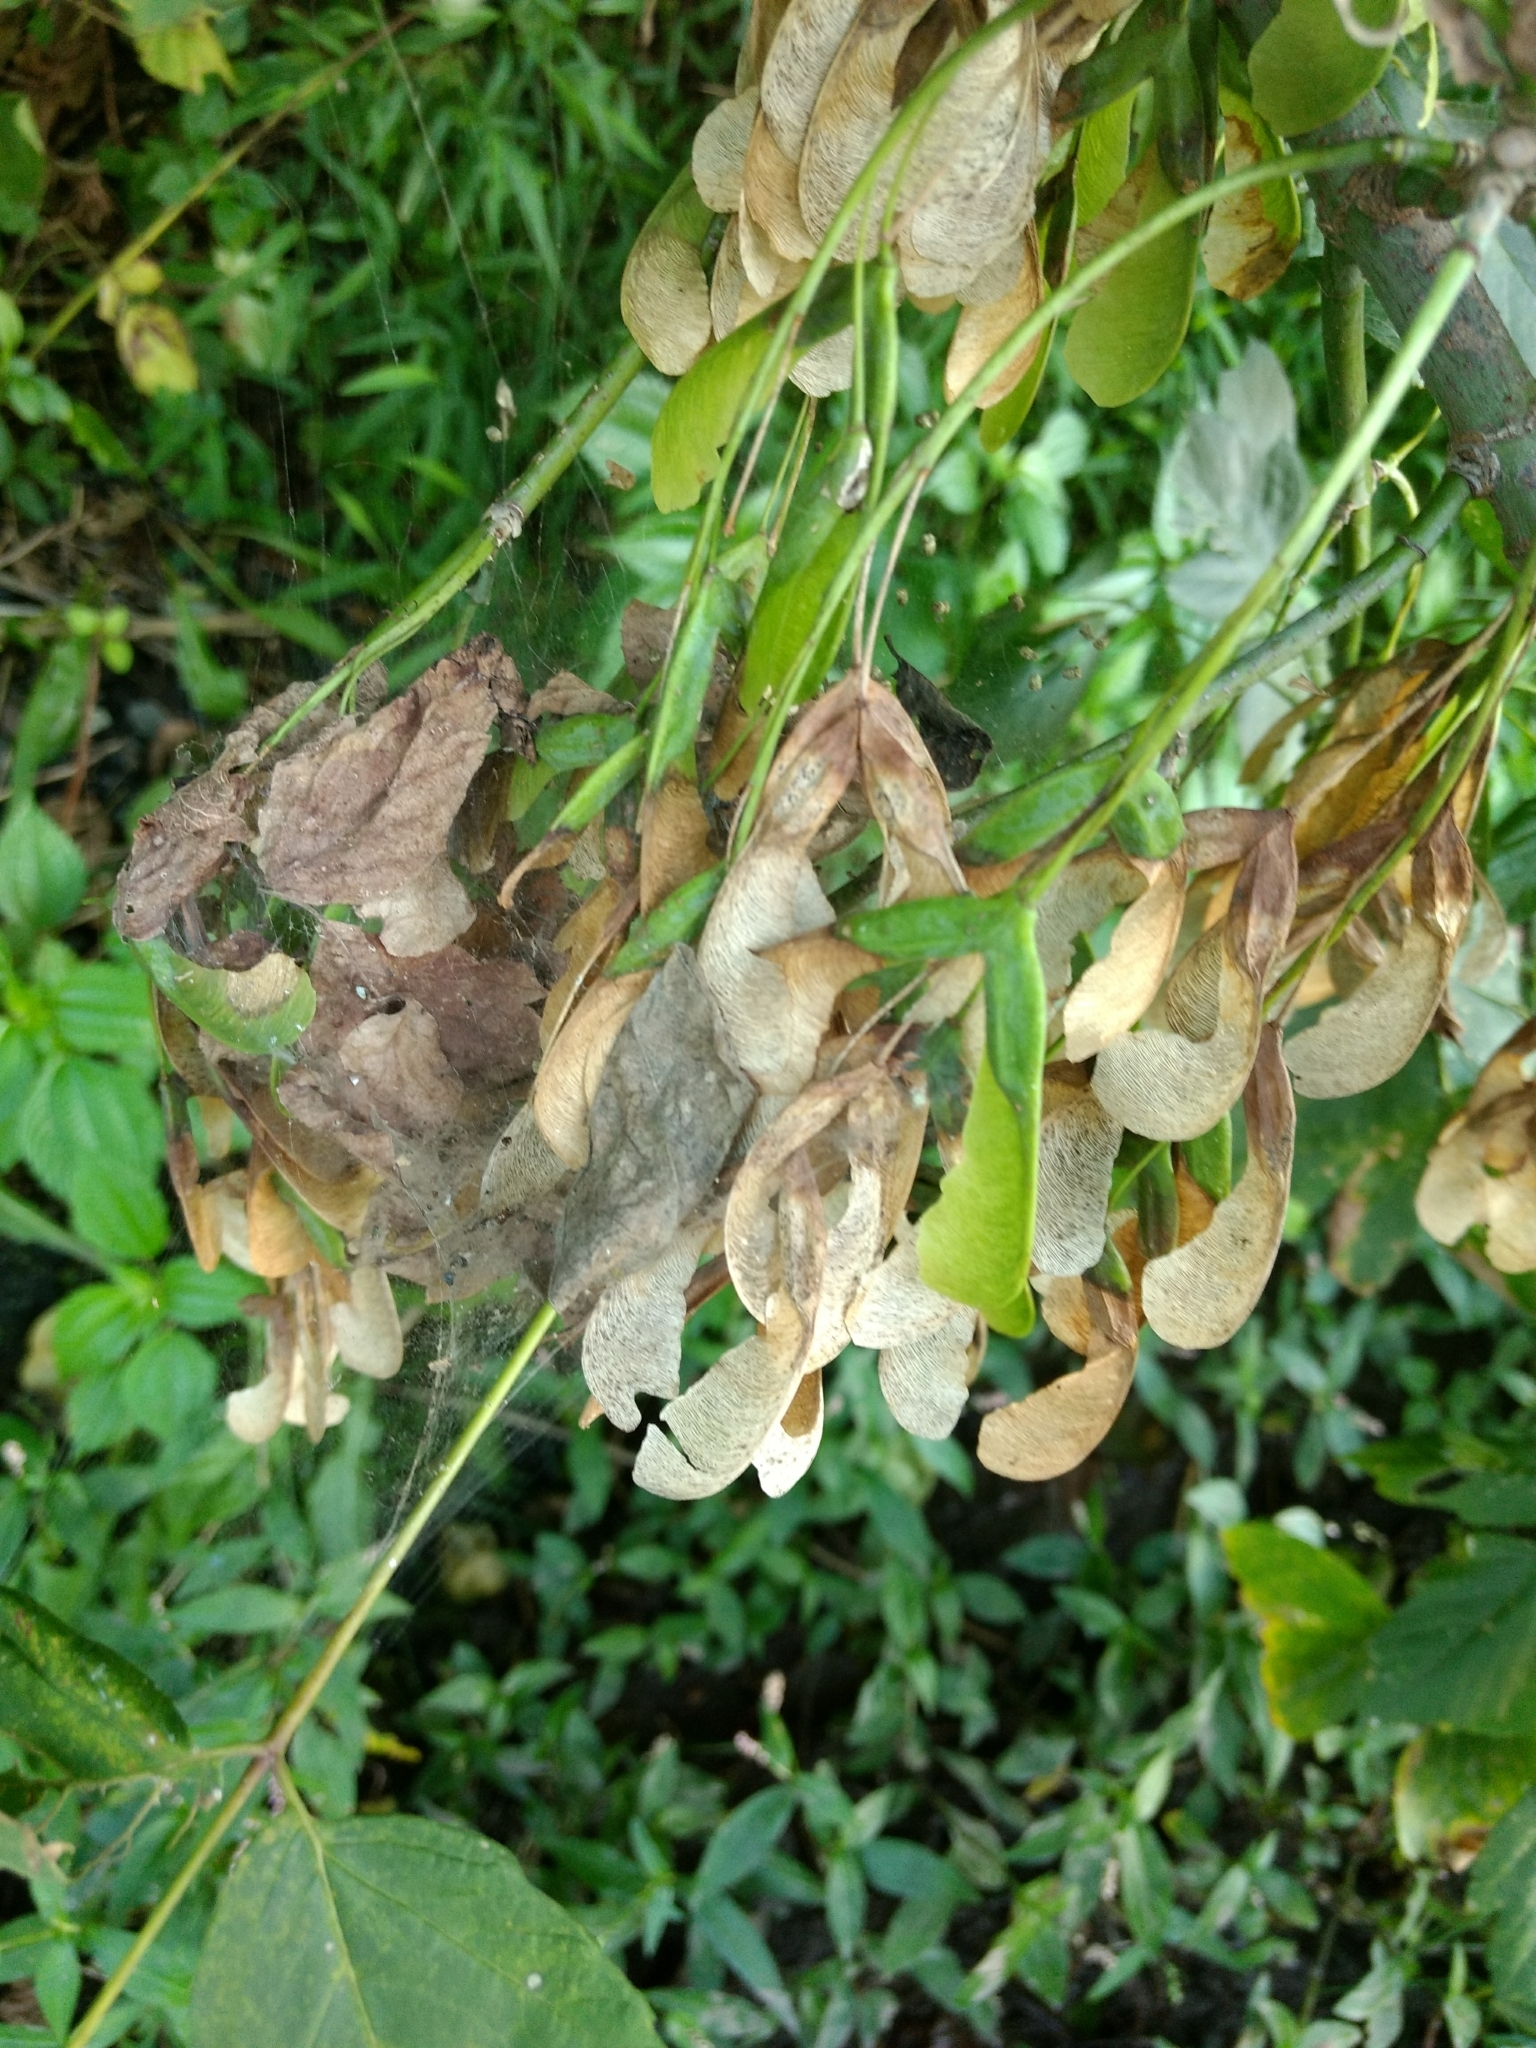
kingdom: Plantae
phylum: Tracheophyta
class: Magnoliopsida
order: Sapindales
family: Sapindaceae
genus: Acer
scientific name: Acer negundo
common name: Ashleaf maple
